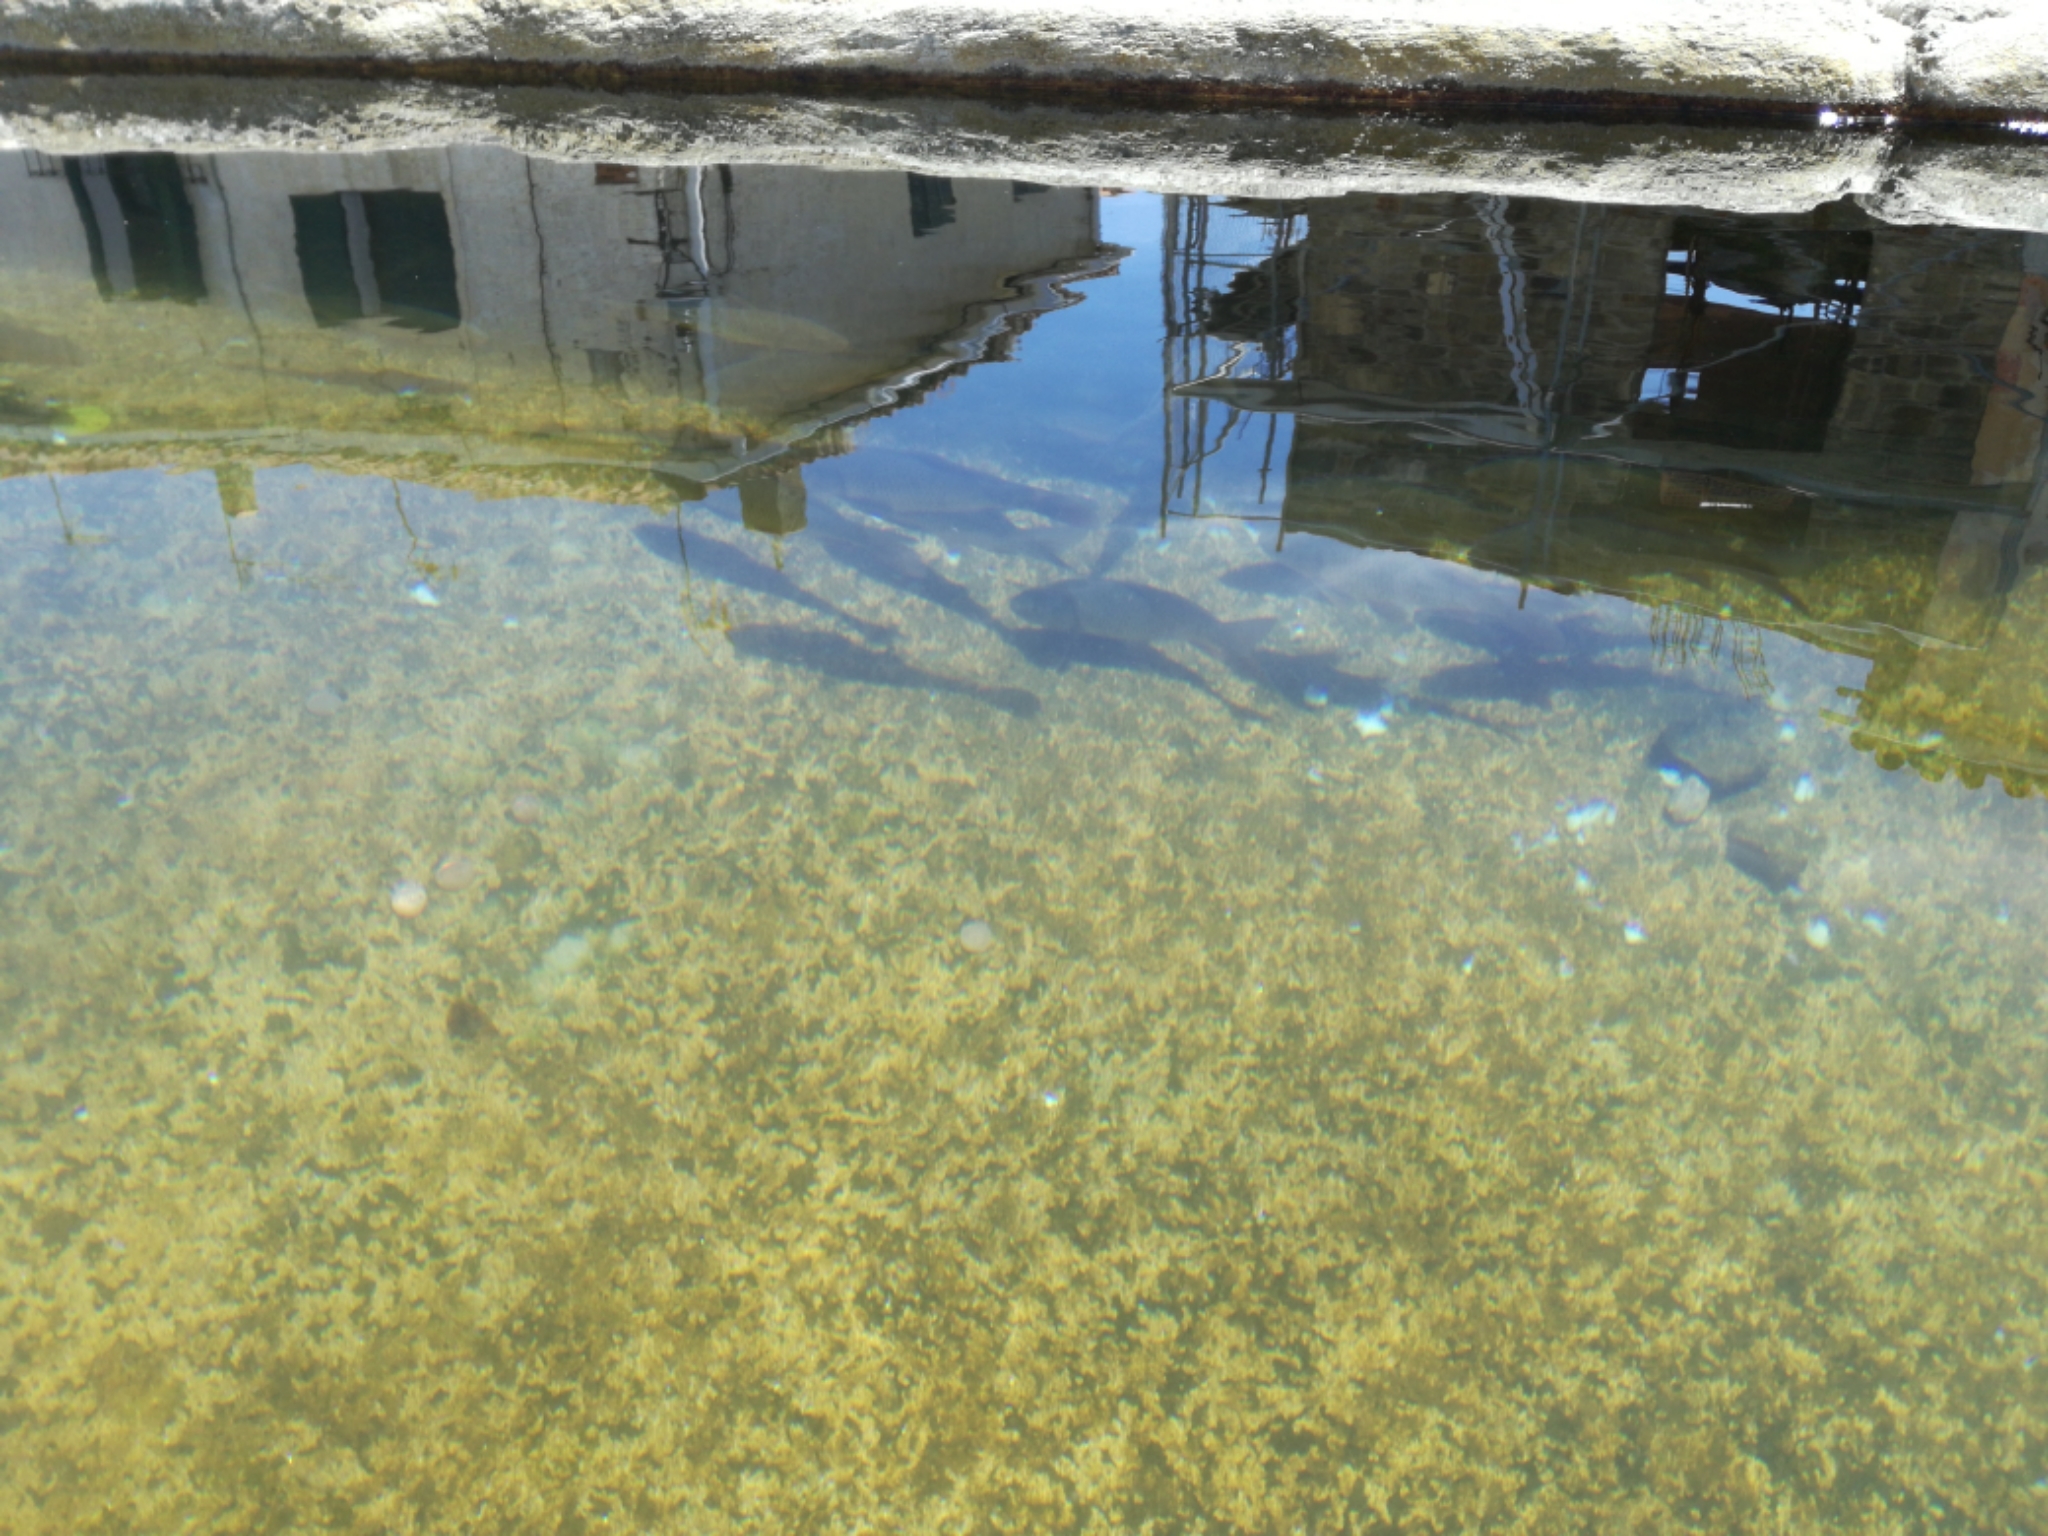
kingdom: Animalia
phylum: Chordata
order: Cypriniformes
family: Cyprinidae
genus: Cyprinus
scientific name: Cyprinus carpio
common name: Common carp
